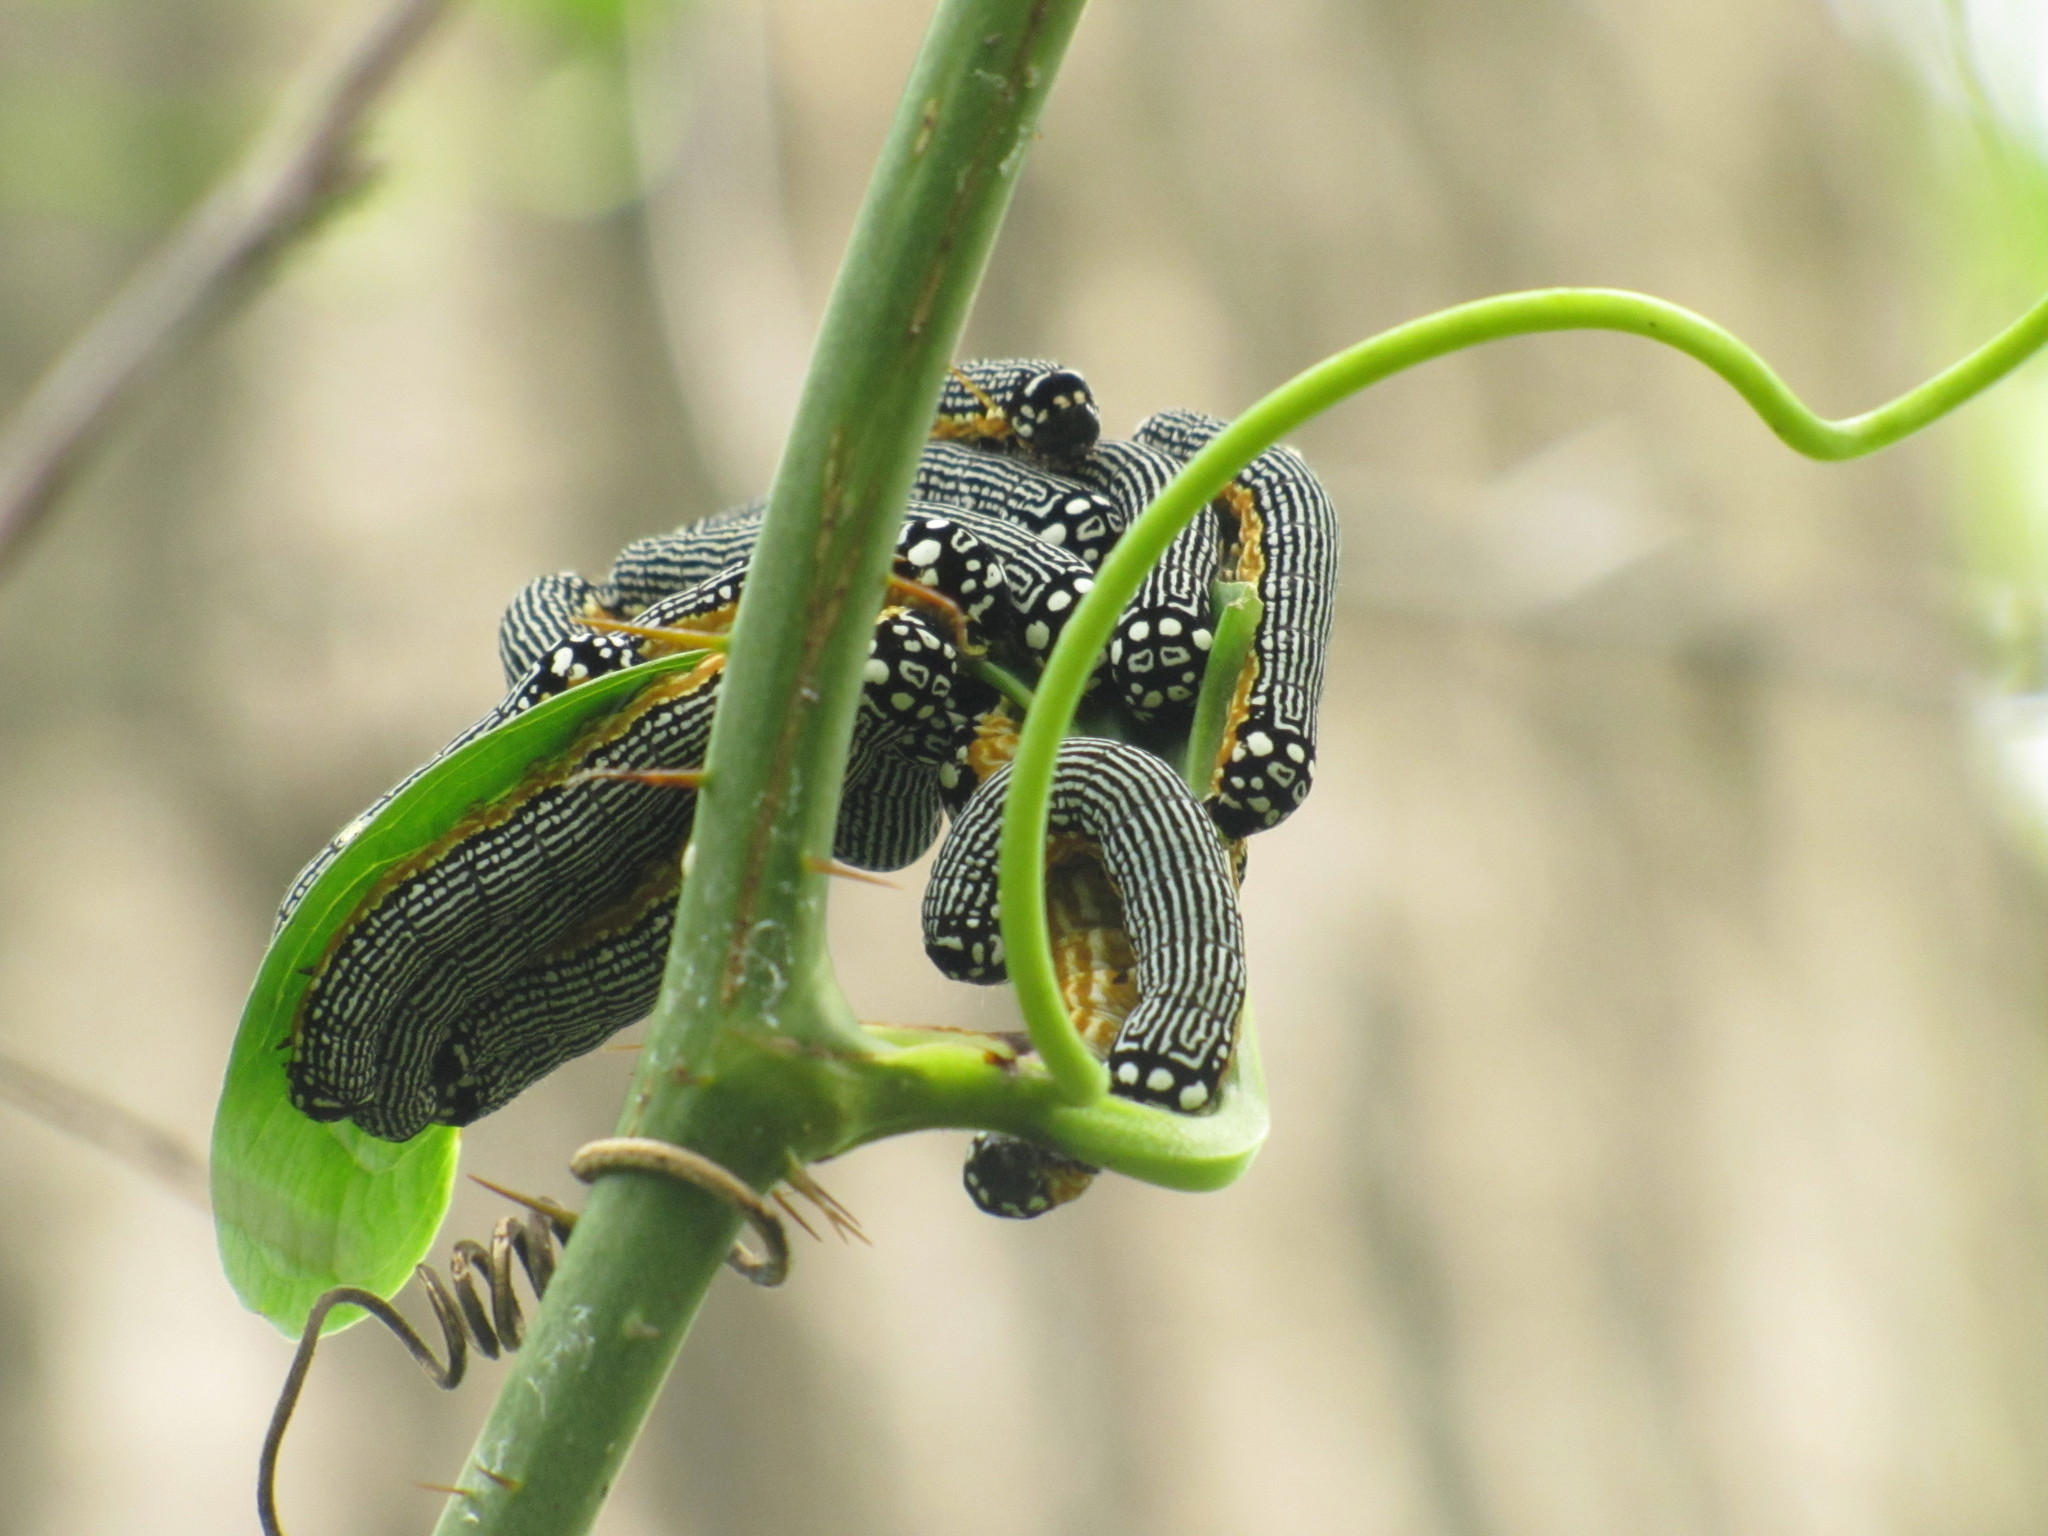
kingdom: Animalia
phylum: Arthropoda
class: Insecta
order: Lepidoptera
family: Noctuidae
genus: Phosphila
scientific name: Phosphila turbulenta
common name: Turbulent phosphila moth
